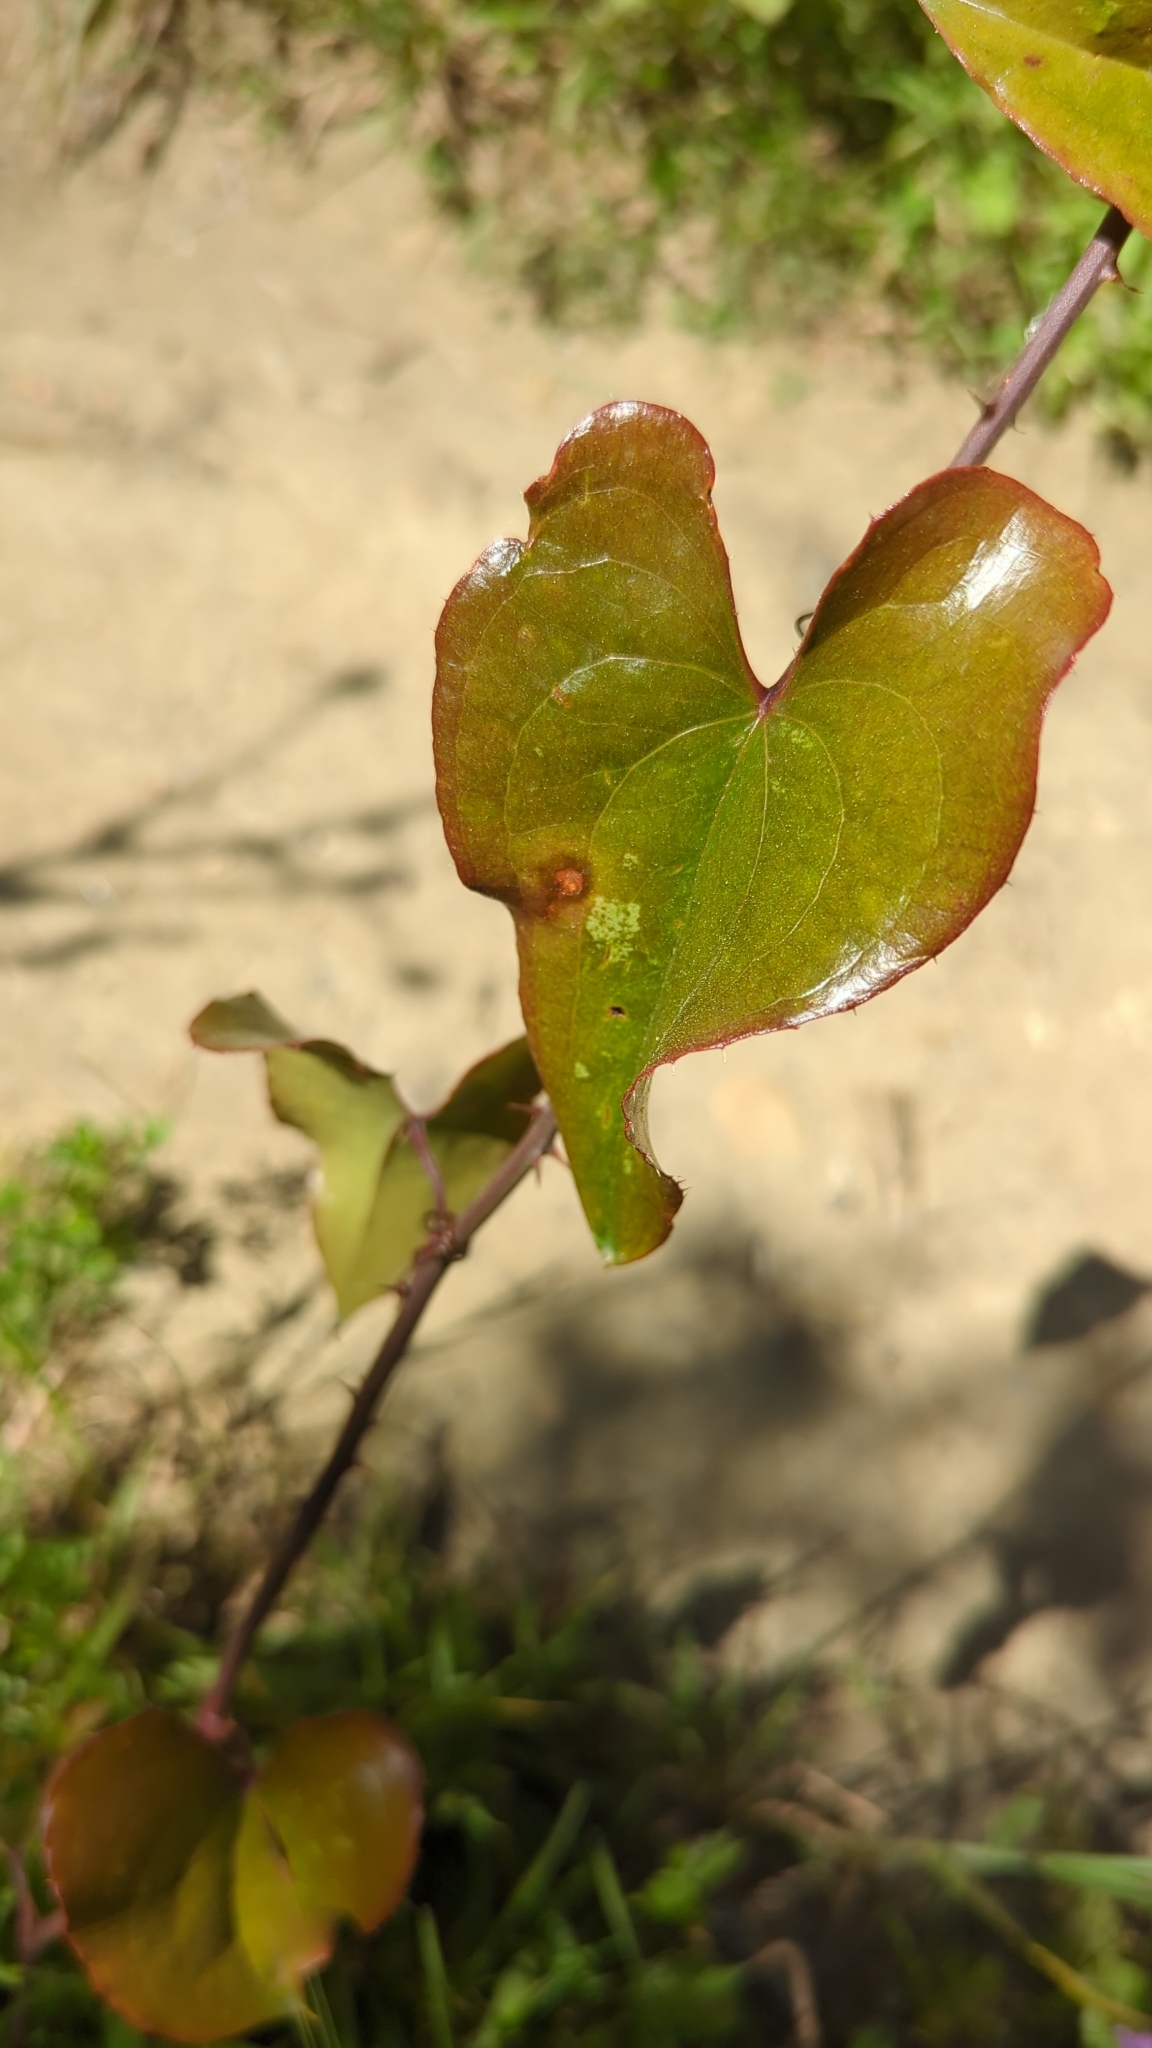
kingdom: Plantae
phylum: Tracheophyta
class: Liliopsida
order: Liliales
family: Smilacaceae
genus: Smilax
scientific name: Smilax aspera
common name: Common smilax
